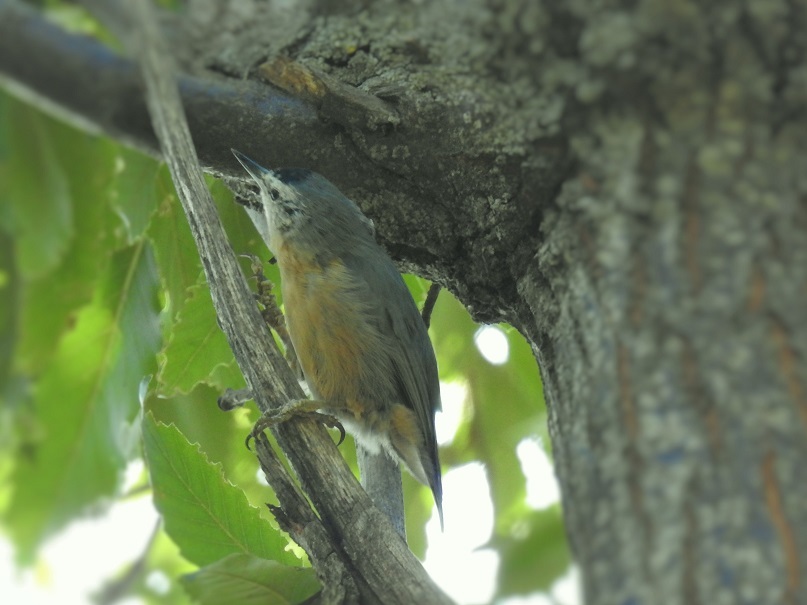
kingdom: Animalia
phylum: Chordata
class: Aves
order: Passeriformes
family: Sittidae
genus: Sitta
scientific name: Sitta ledanti
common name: Algerian nuthatch
